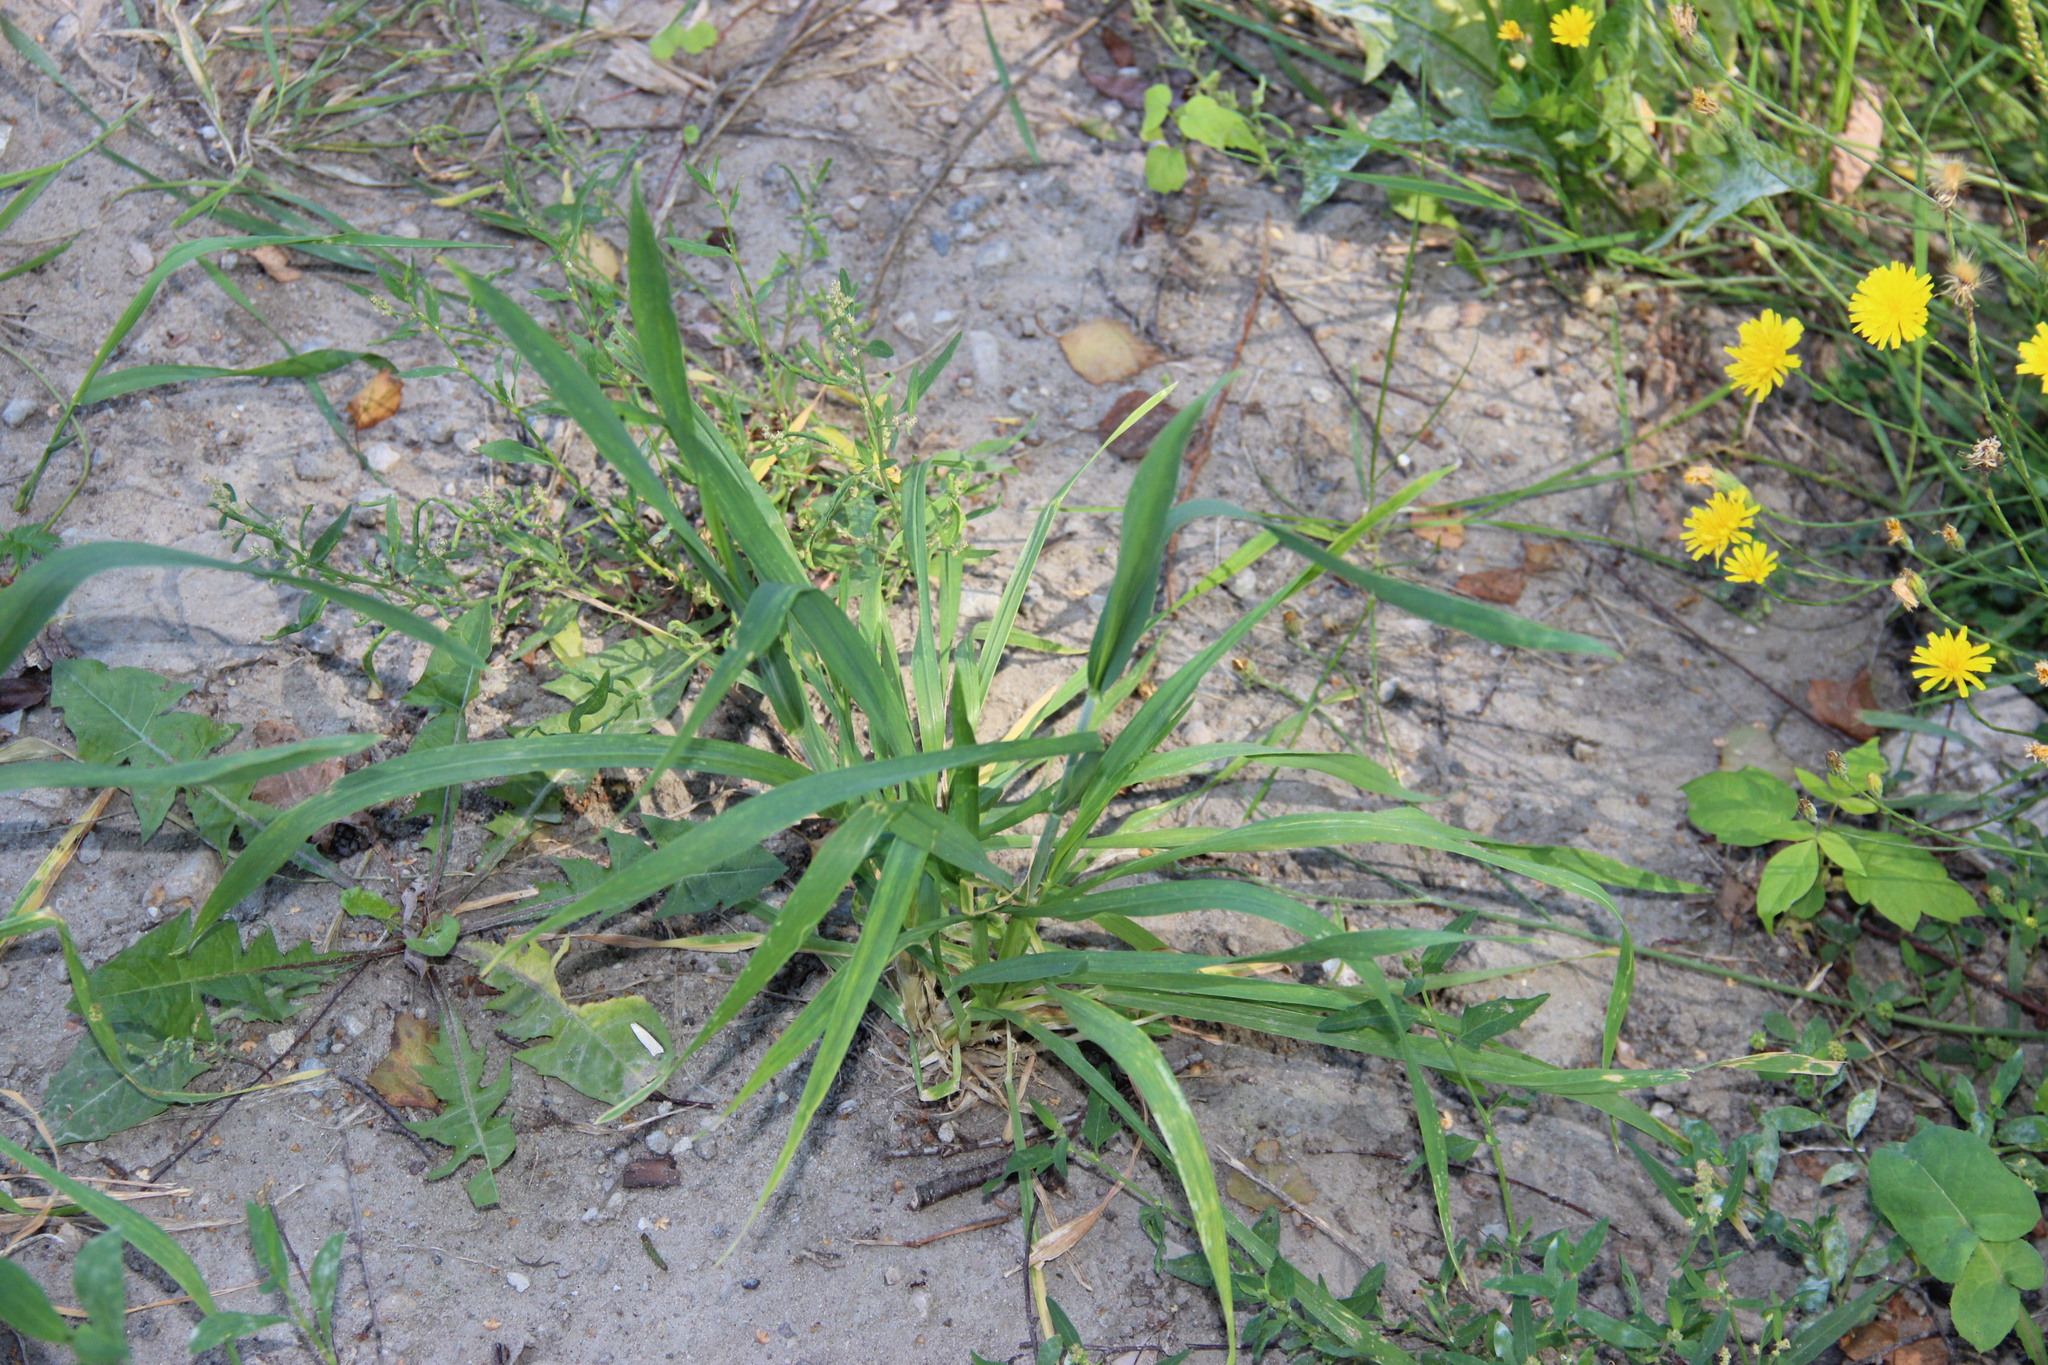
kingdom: Plantae
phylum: Tracheophyta
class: Liliopsida
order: Poales
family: Poaceae
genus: Dactylis
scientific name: Dactylis glomerata
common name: Orchardgrass
